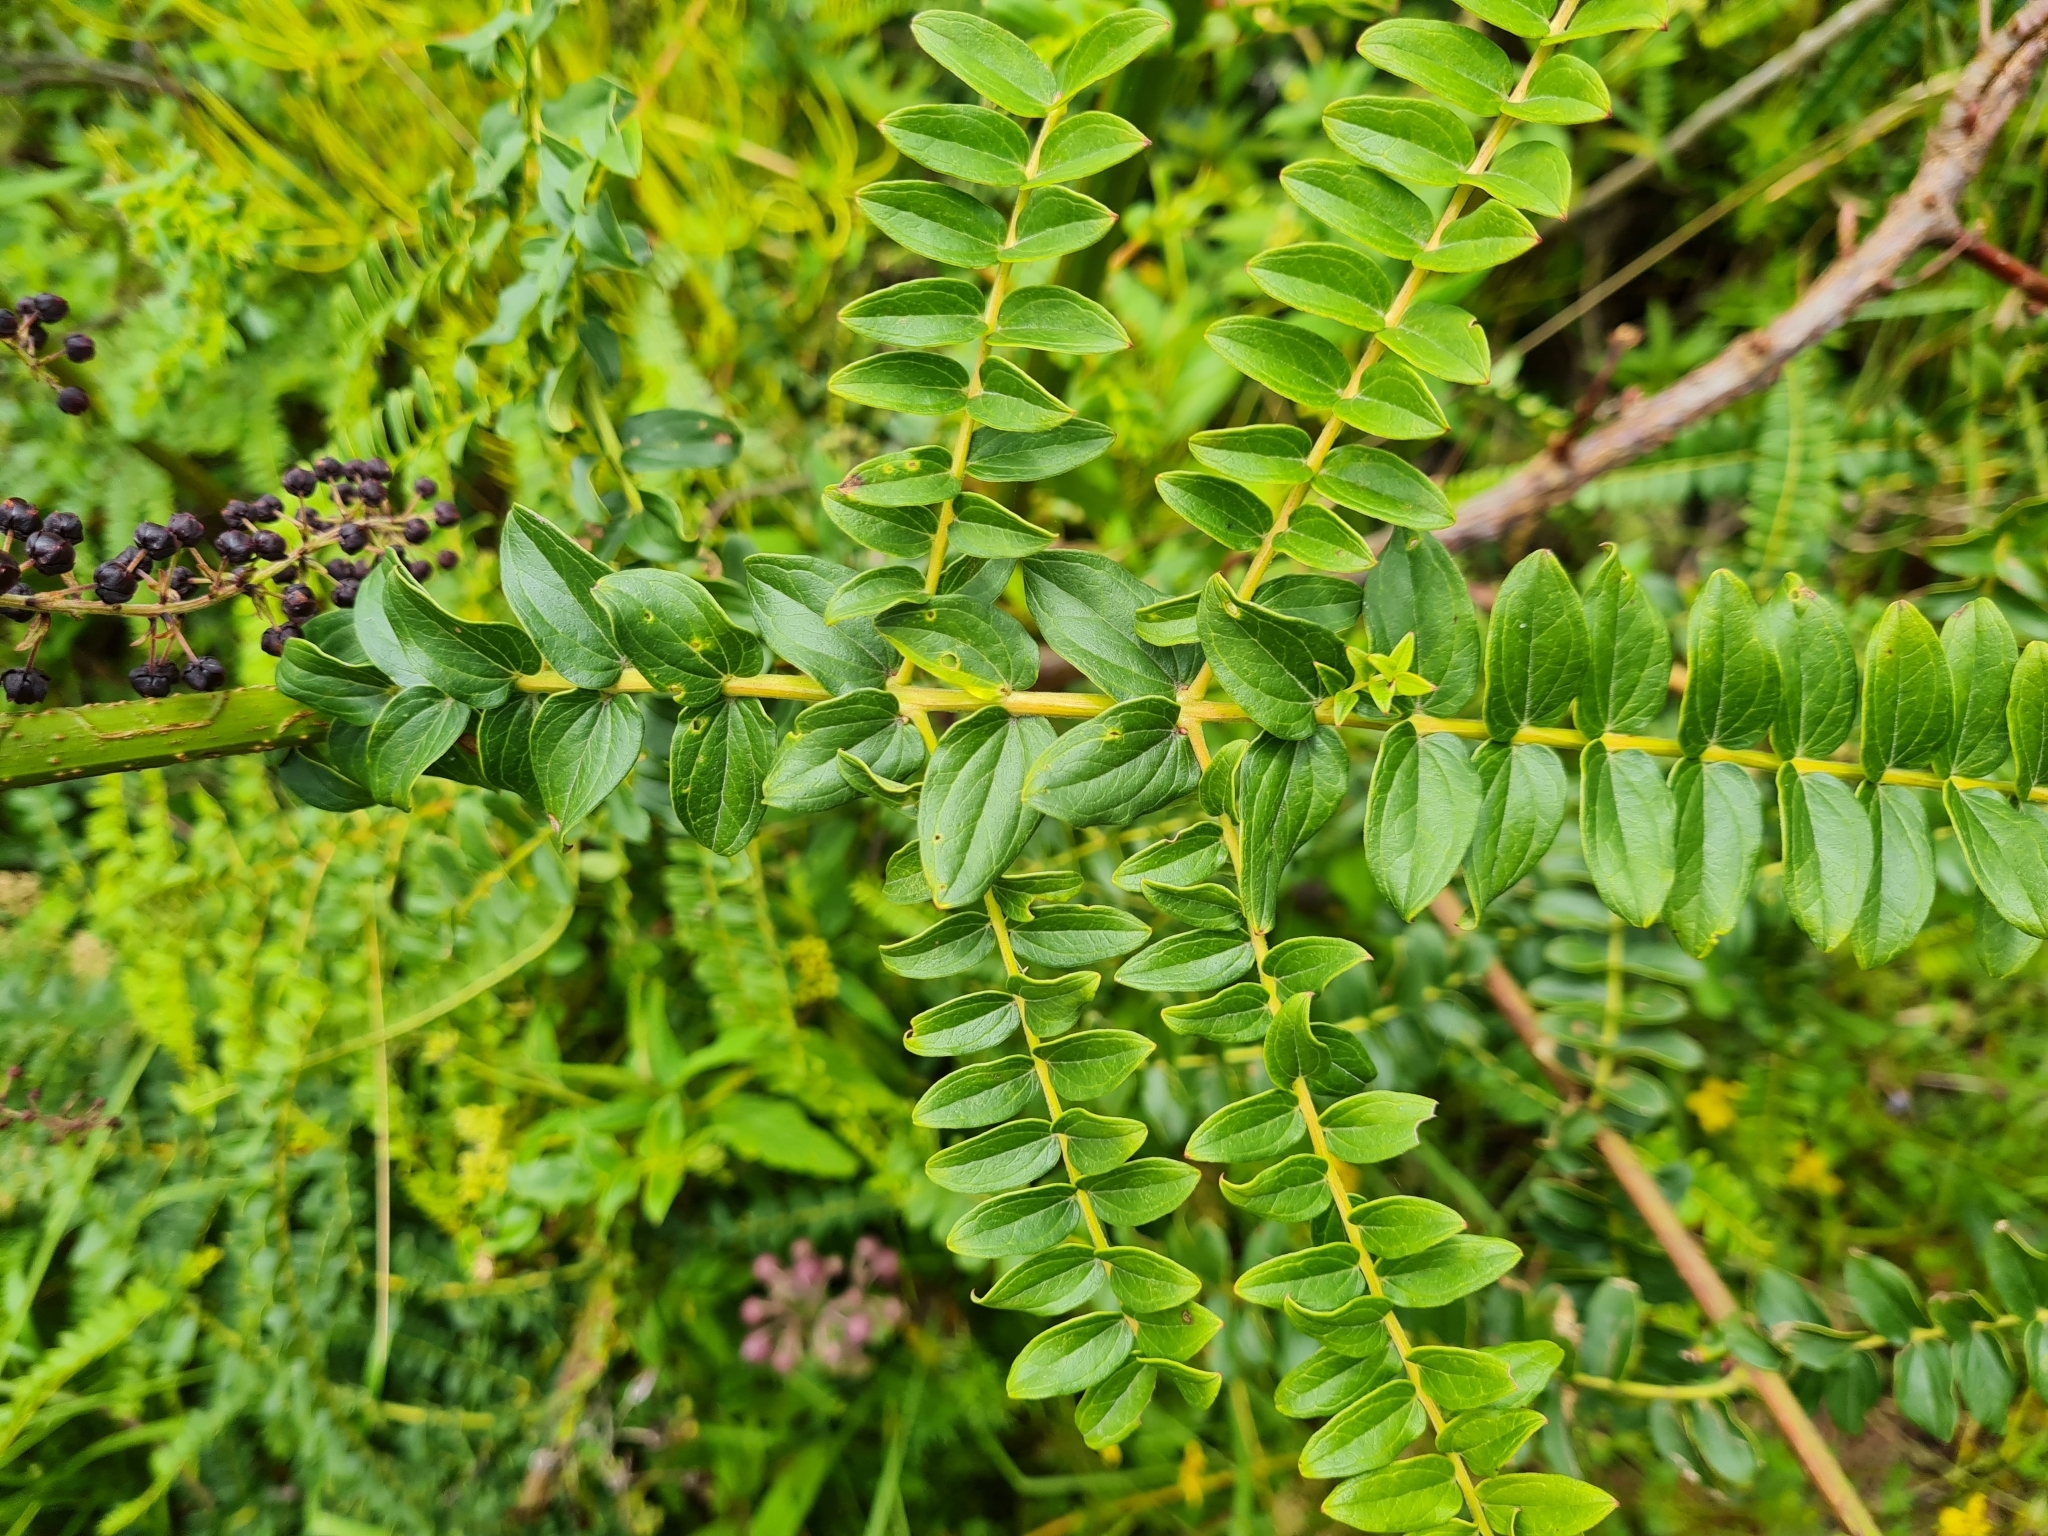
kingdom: Plantae
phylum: Tracheophyta
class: Magnoliopsida
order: Cucurbitales
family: Coriariaceae
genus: Coriaria
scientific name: Coriaria ruscifolia
